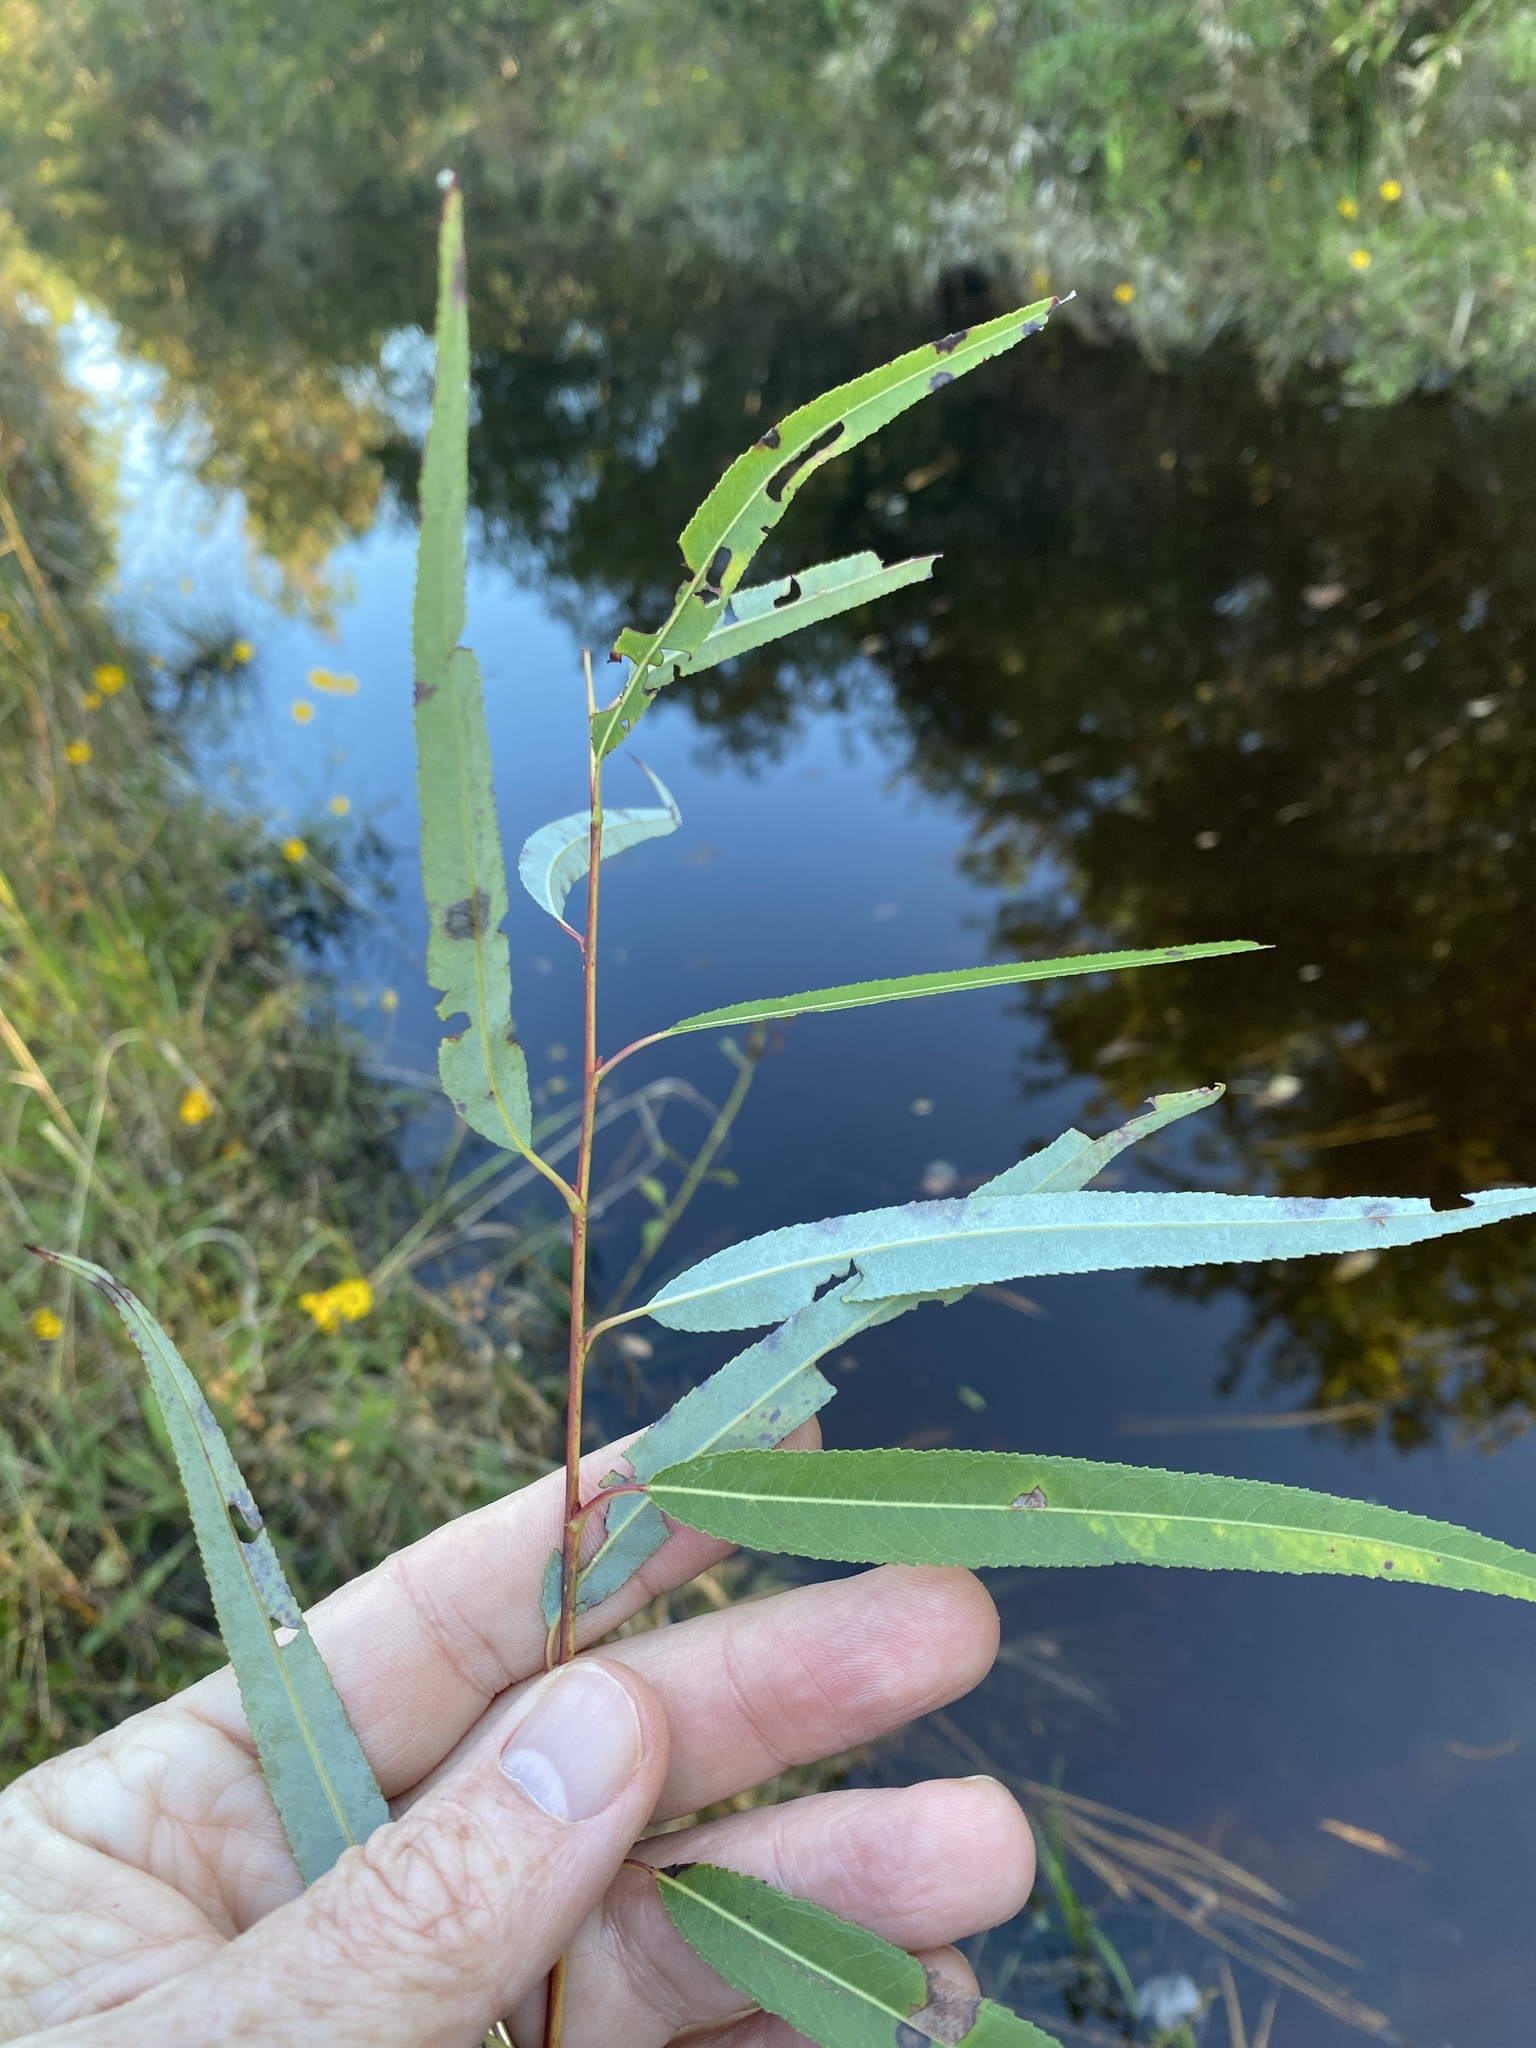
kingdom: Plantae
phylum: Tracheophyta
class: Magnoliopsida
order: Malpighiales
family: Salicaceae
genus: Salix
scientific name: Salix caroliniana
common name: Carolina willow
